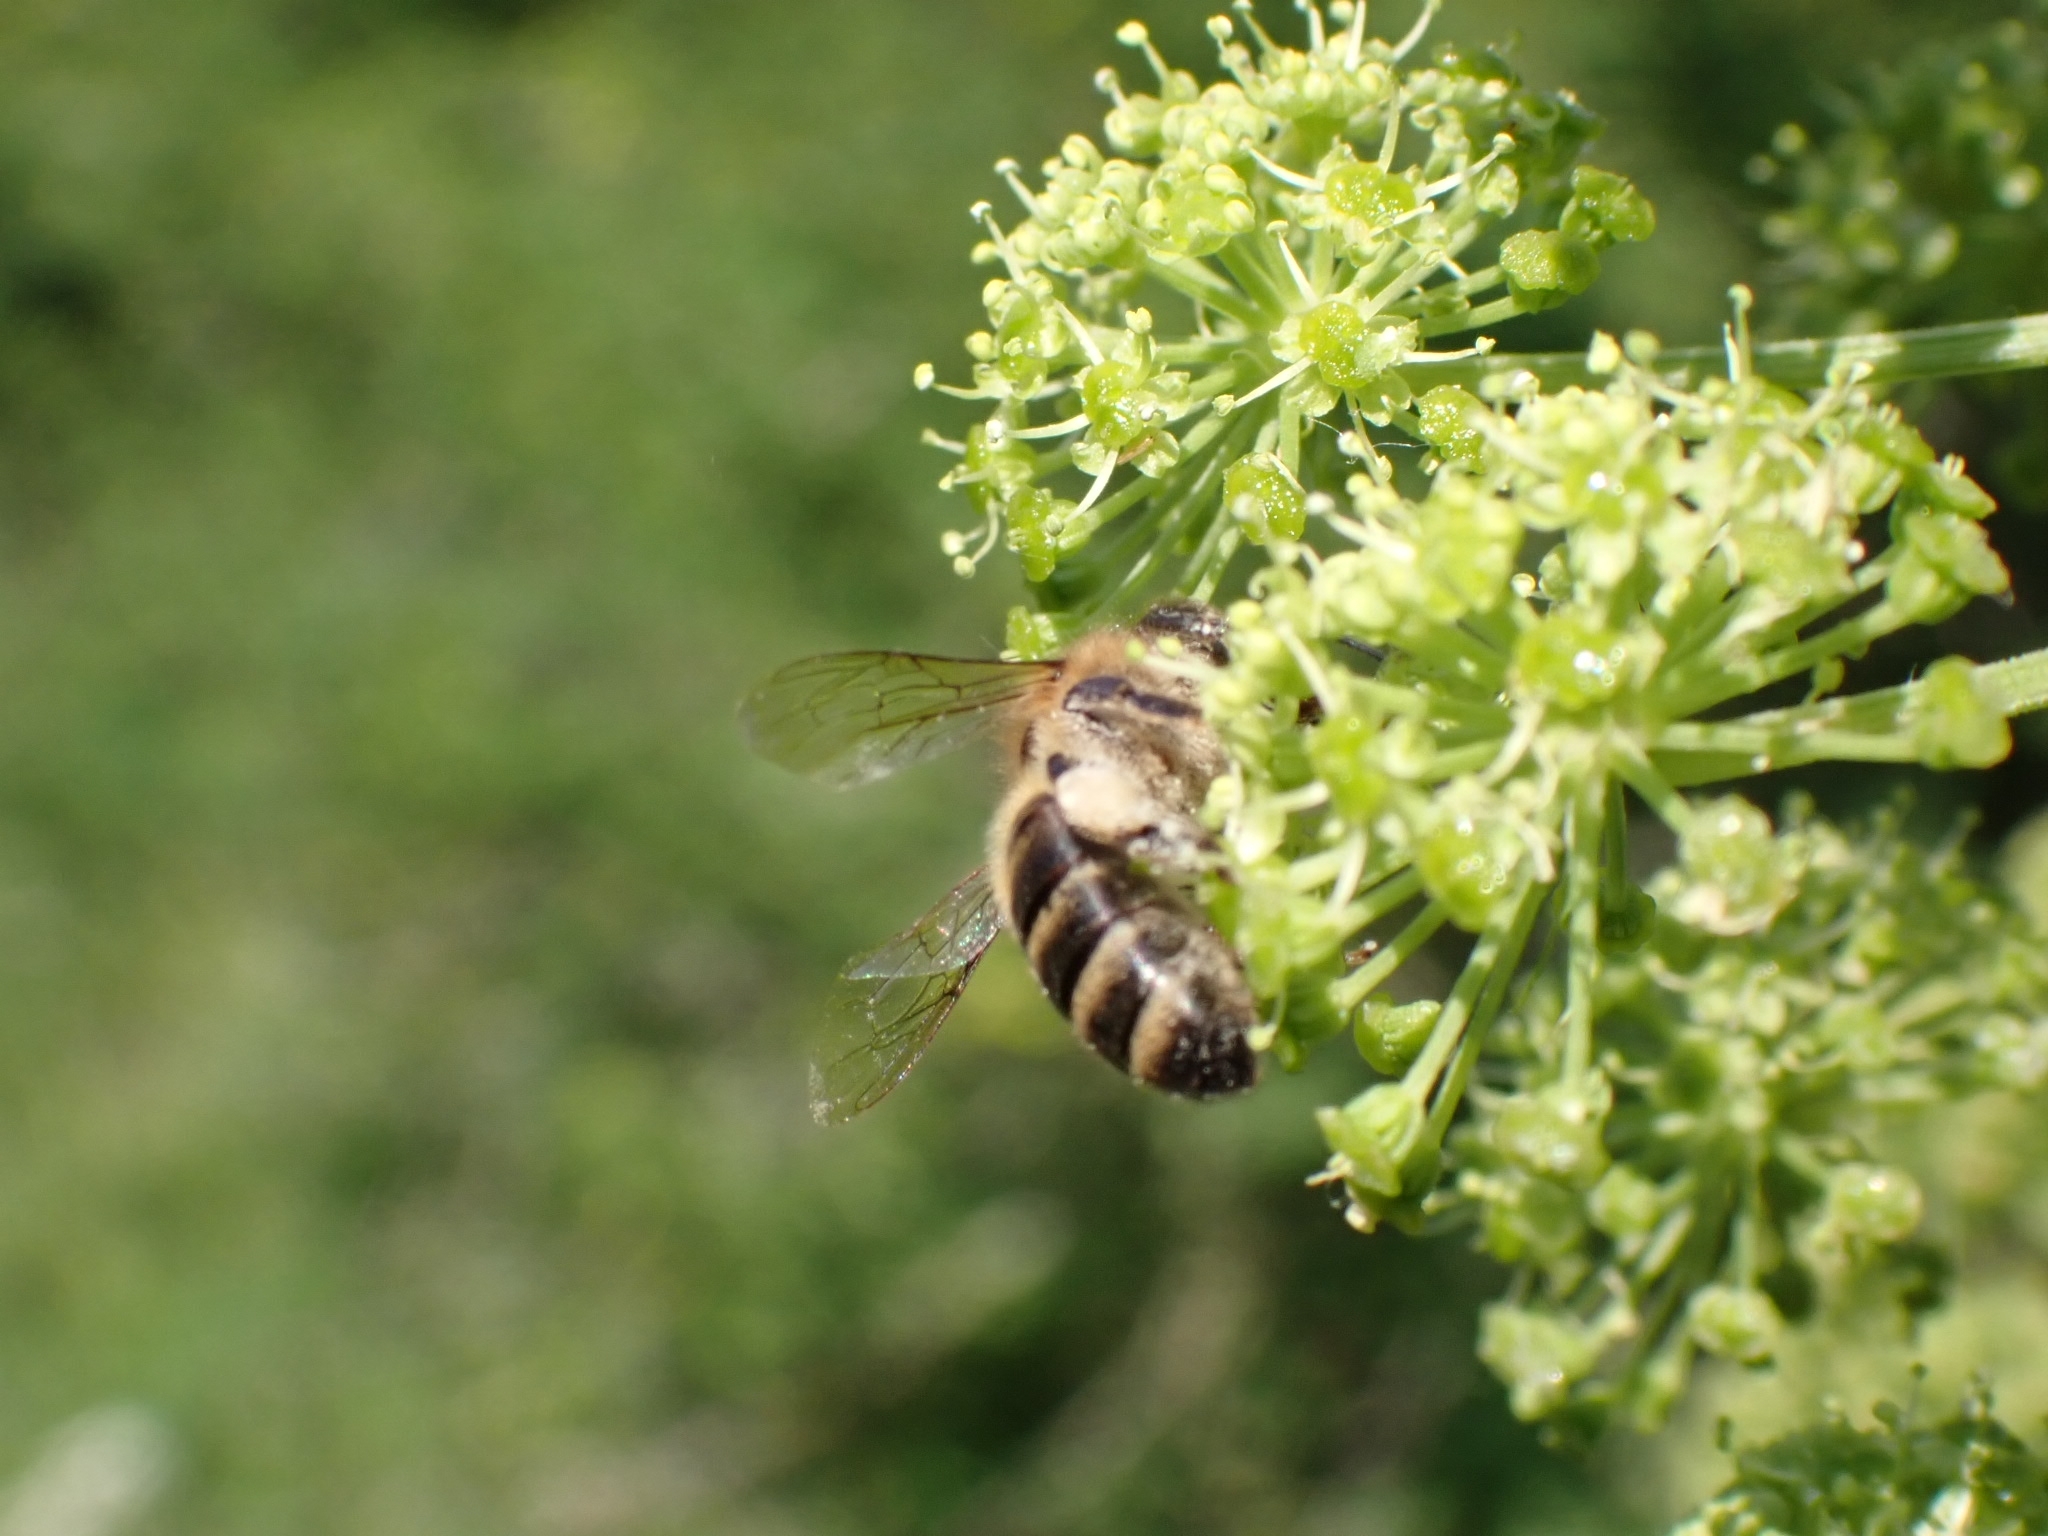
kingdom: Animalia
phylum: Arthropoda
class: Insecta
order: Hymenoptera
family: Apidae
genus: Apis
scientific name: Apis mellifera
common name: Honey bee
